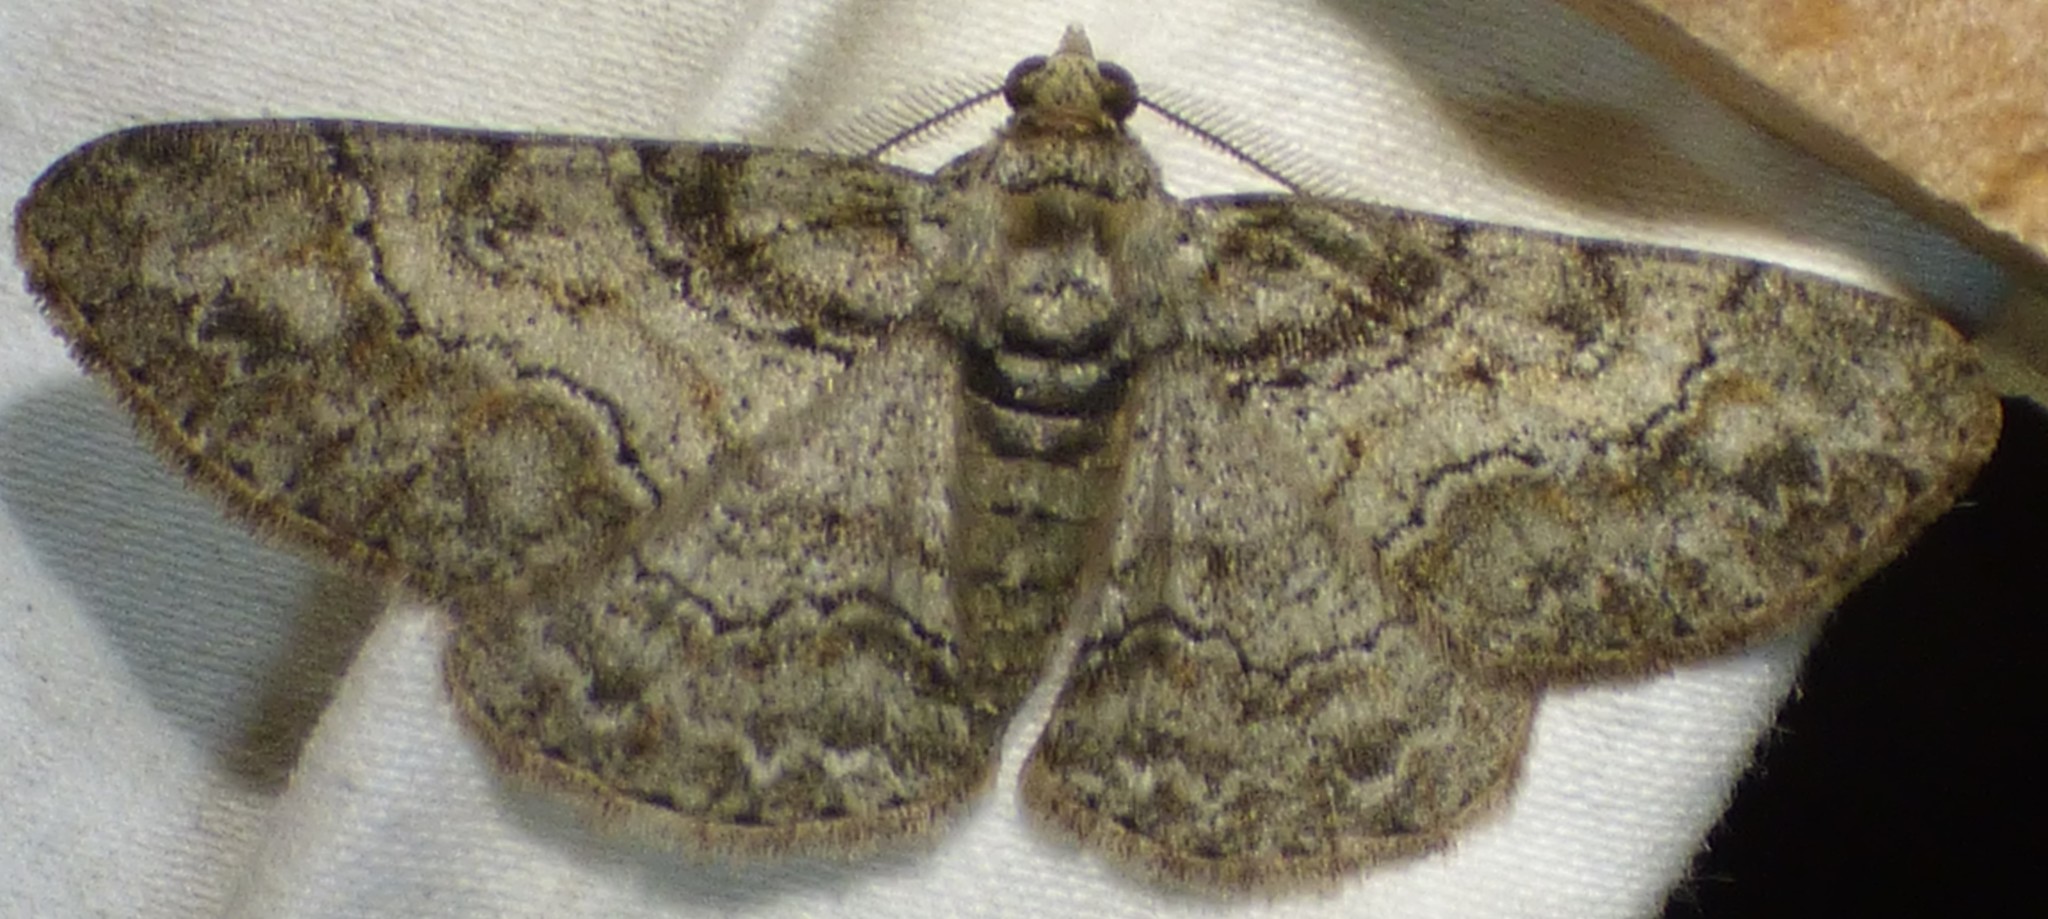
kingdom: Animalia
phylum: Arthropoda
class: Insecta
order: Lepidoptera
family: Geometridae
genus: Cleora
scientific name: Cleora sublunaria
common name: Double-lined gray
